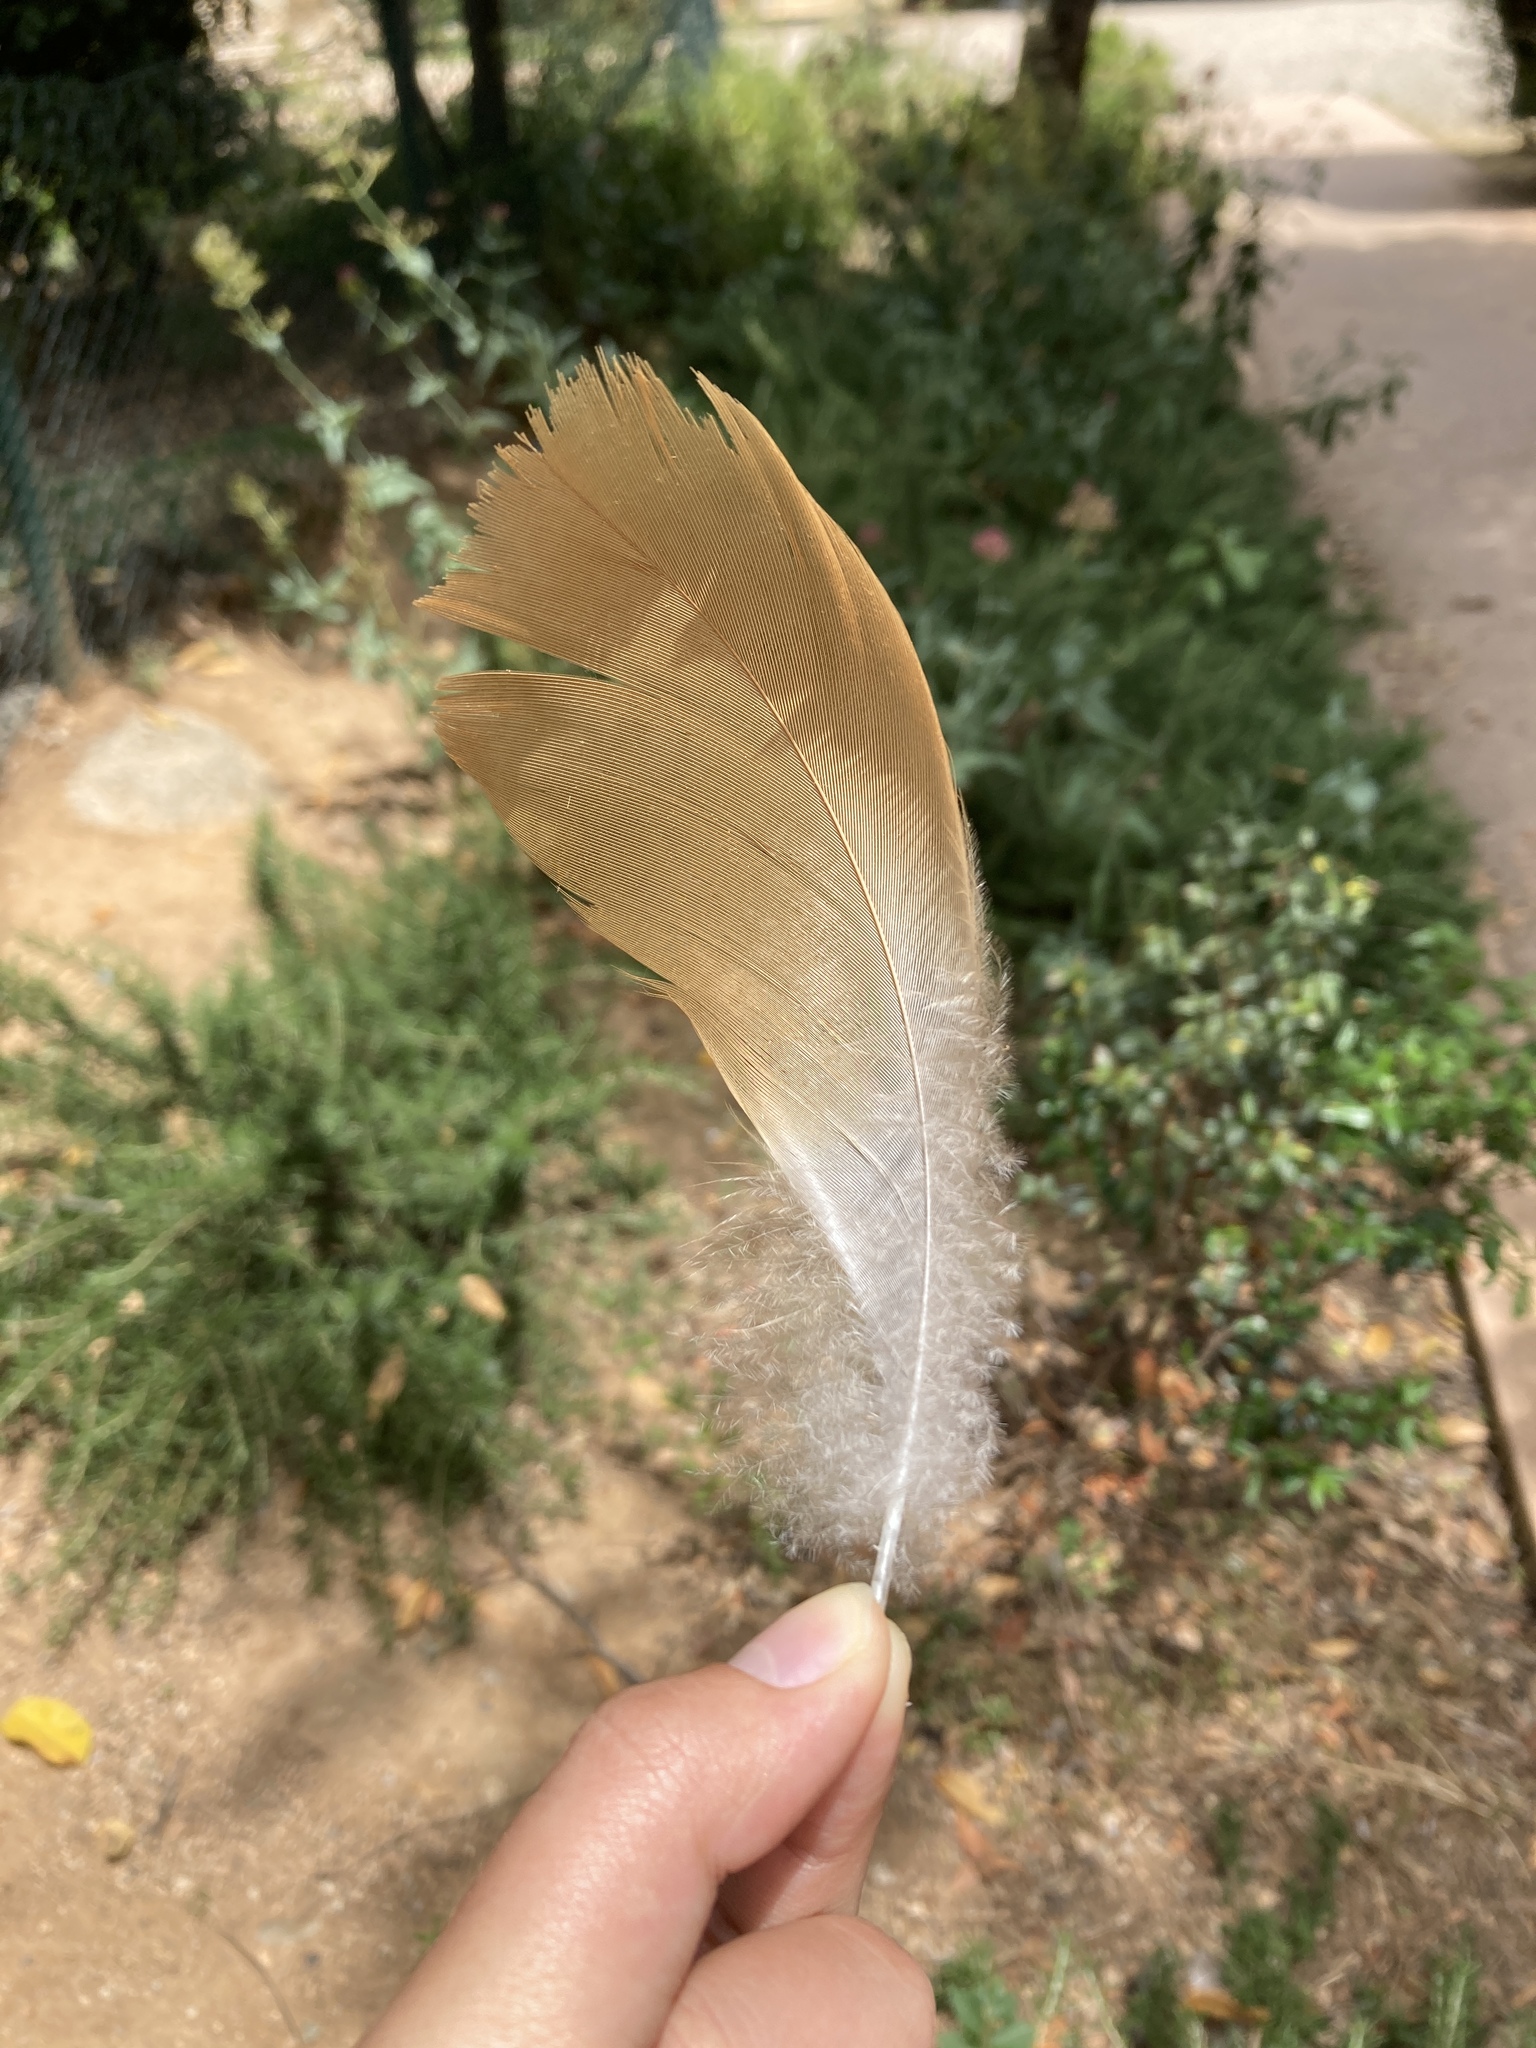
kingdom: Animalia
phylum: Chordata
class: Aves
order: Anseriformes
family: Anatidae
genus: Tadorna
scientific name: Tadorna ferruginea
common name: Ruddy shelduck
